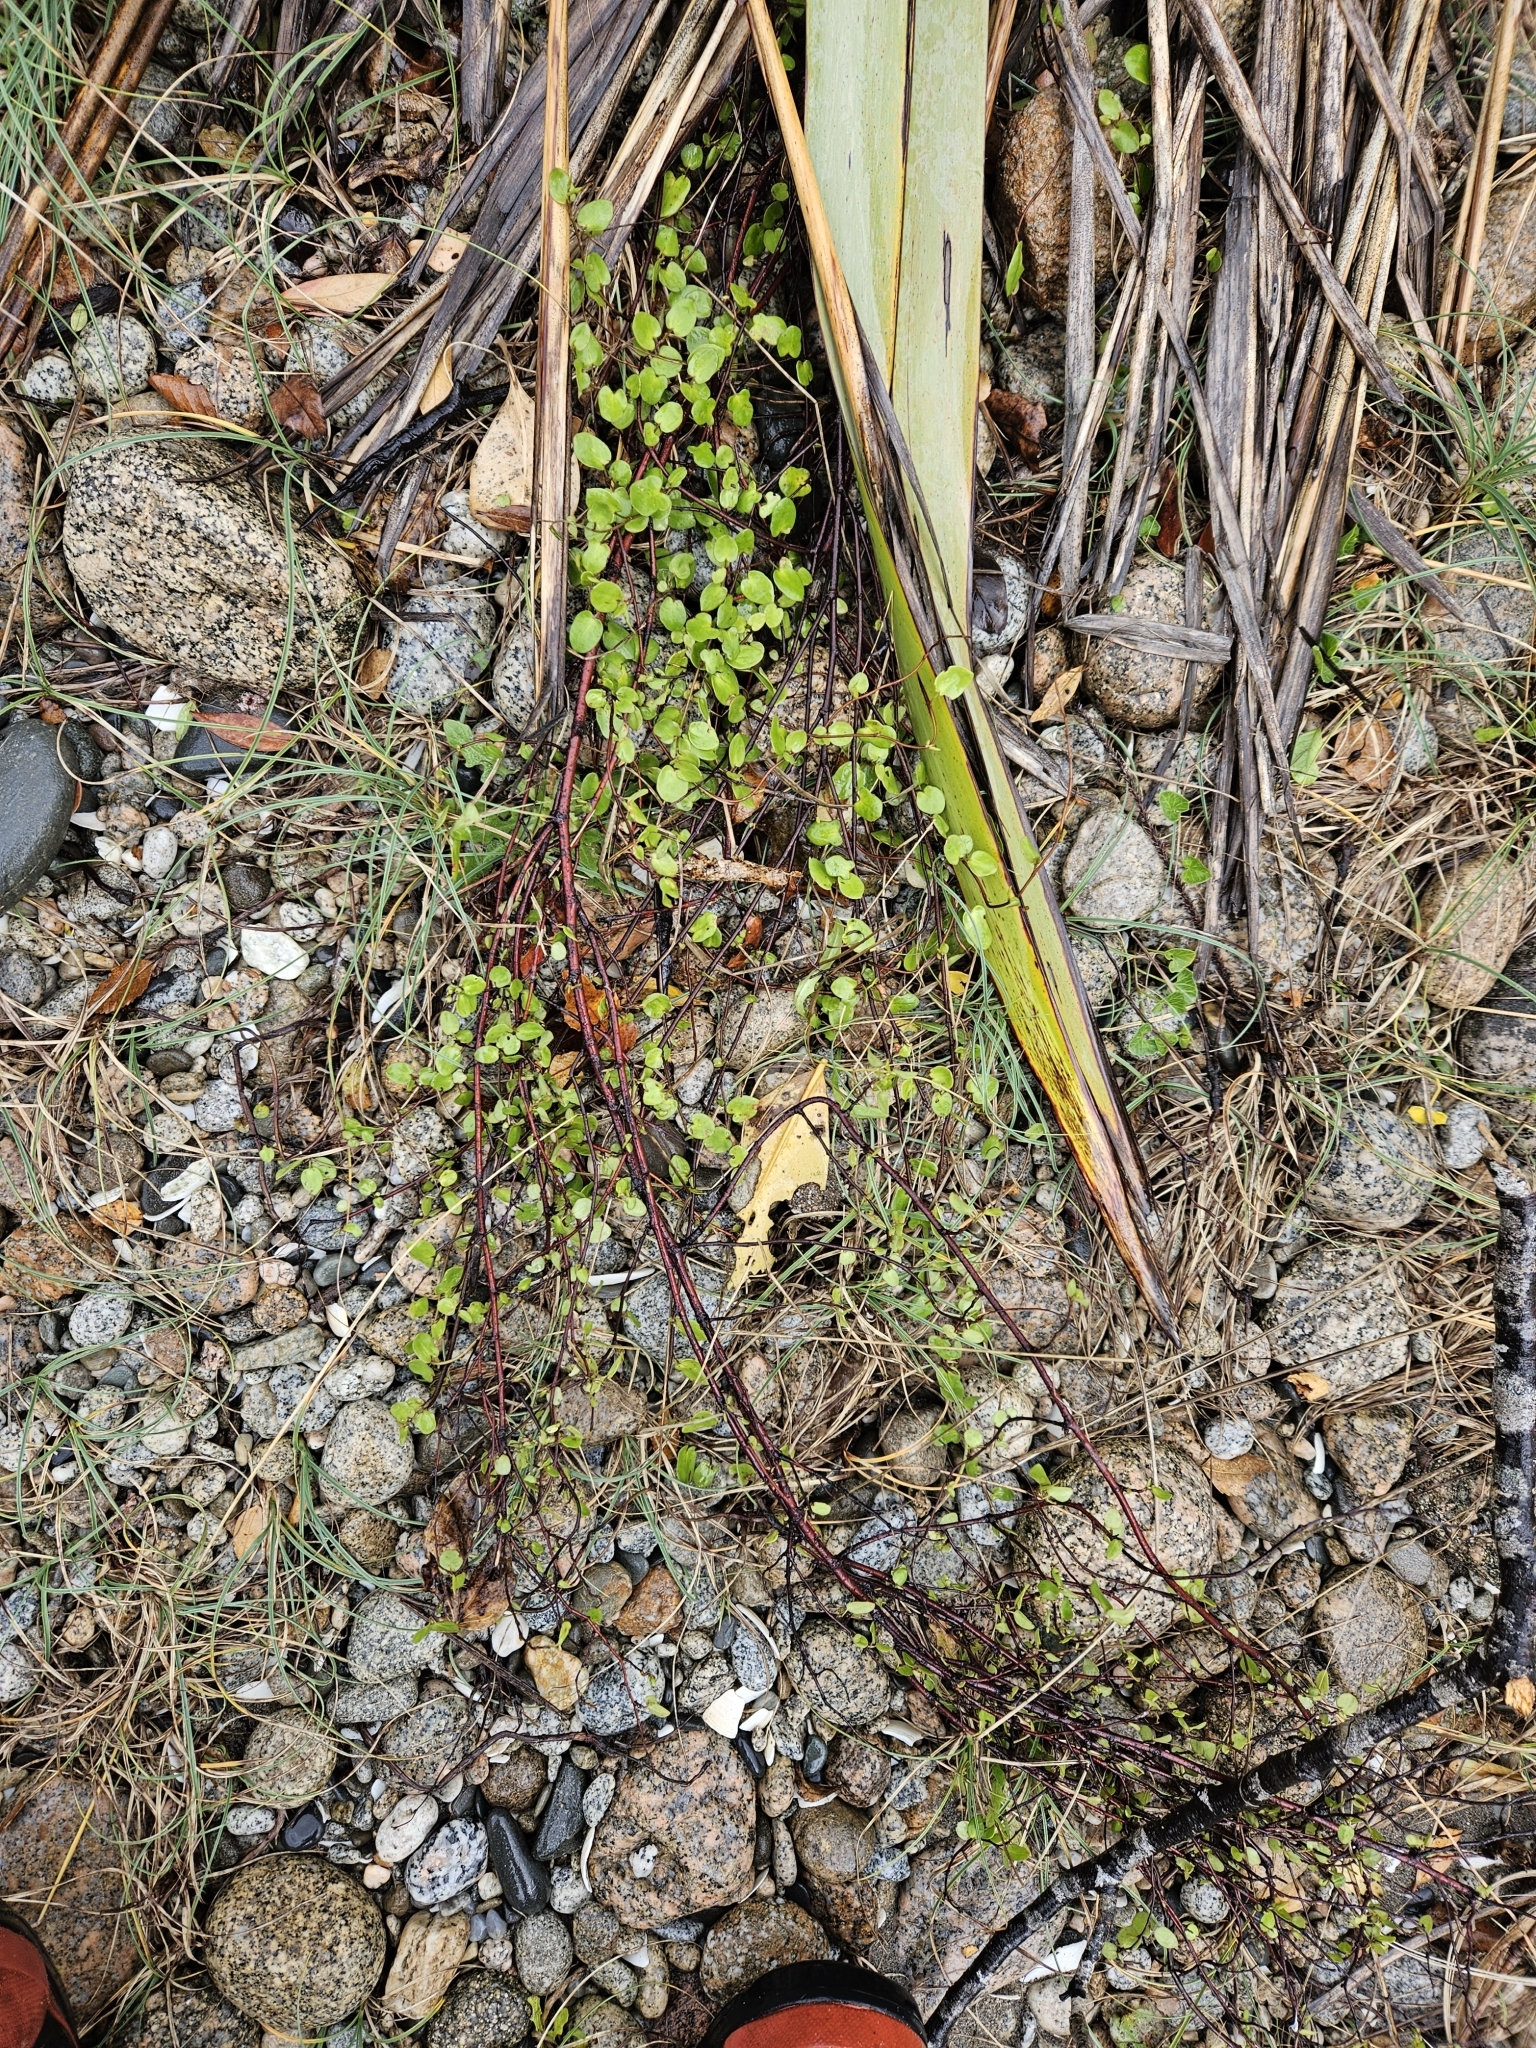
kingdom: Plantae
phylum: Tracheophyta
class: Magnoliopsida
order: Caryophyllales
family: Polygonaceae
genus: Muehlenbeckia
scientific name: Muehlenbeckia complexa
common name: Wireplant
